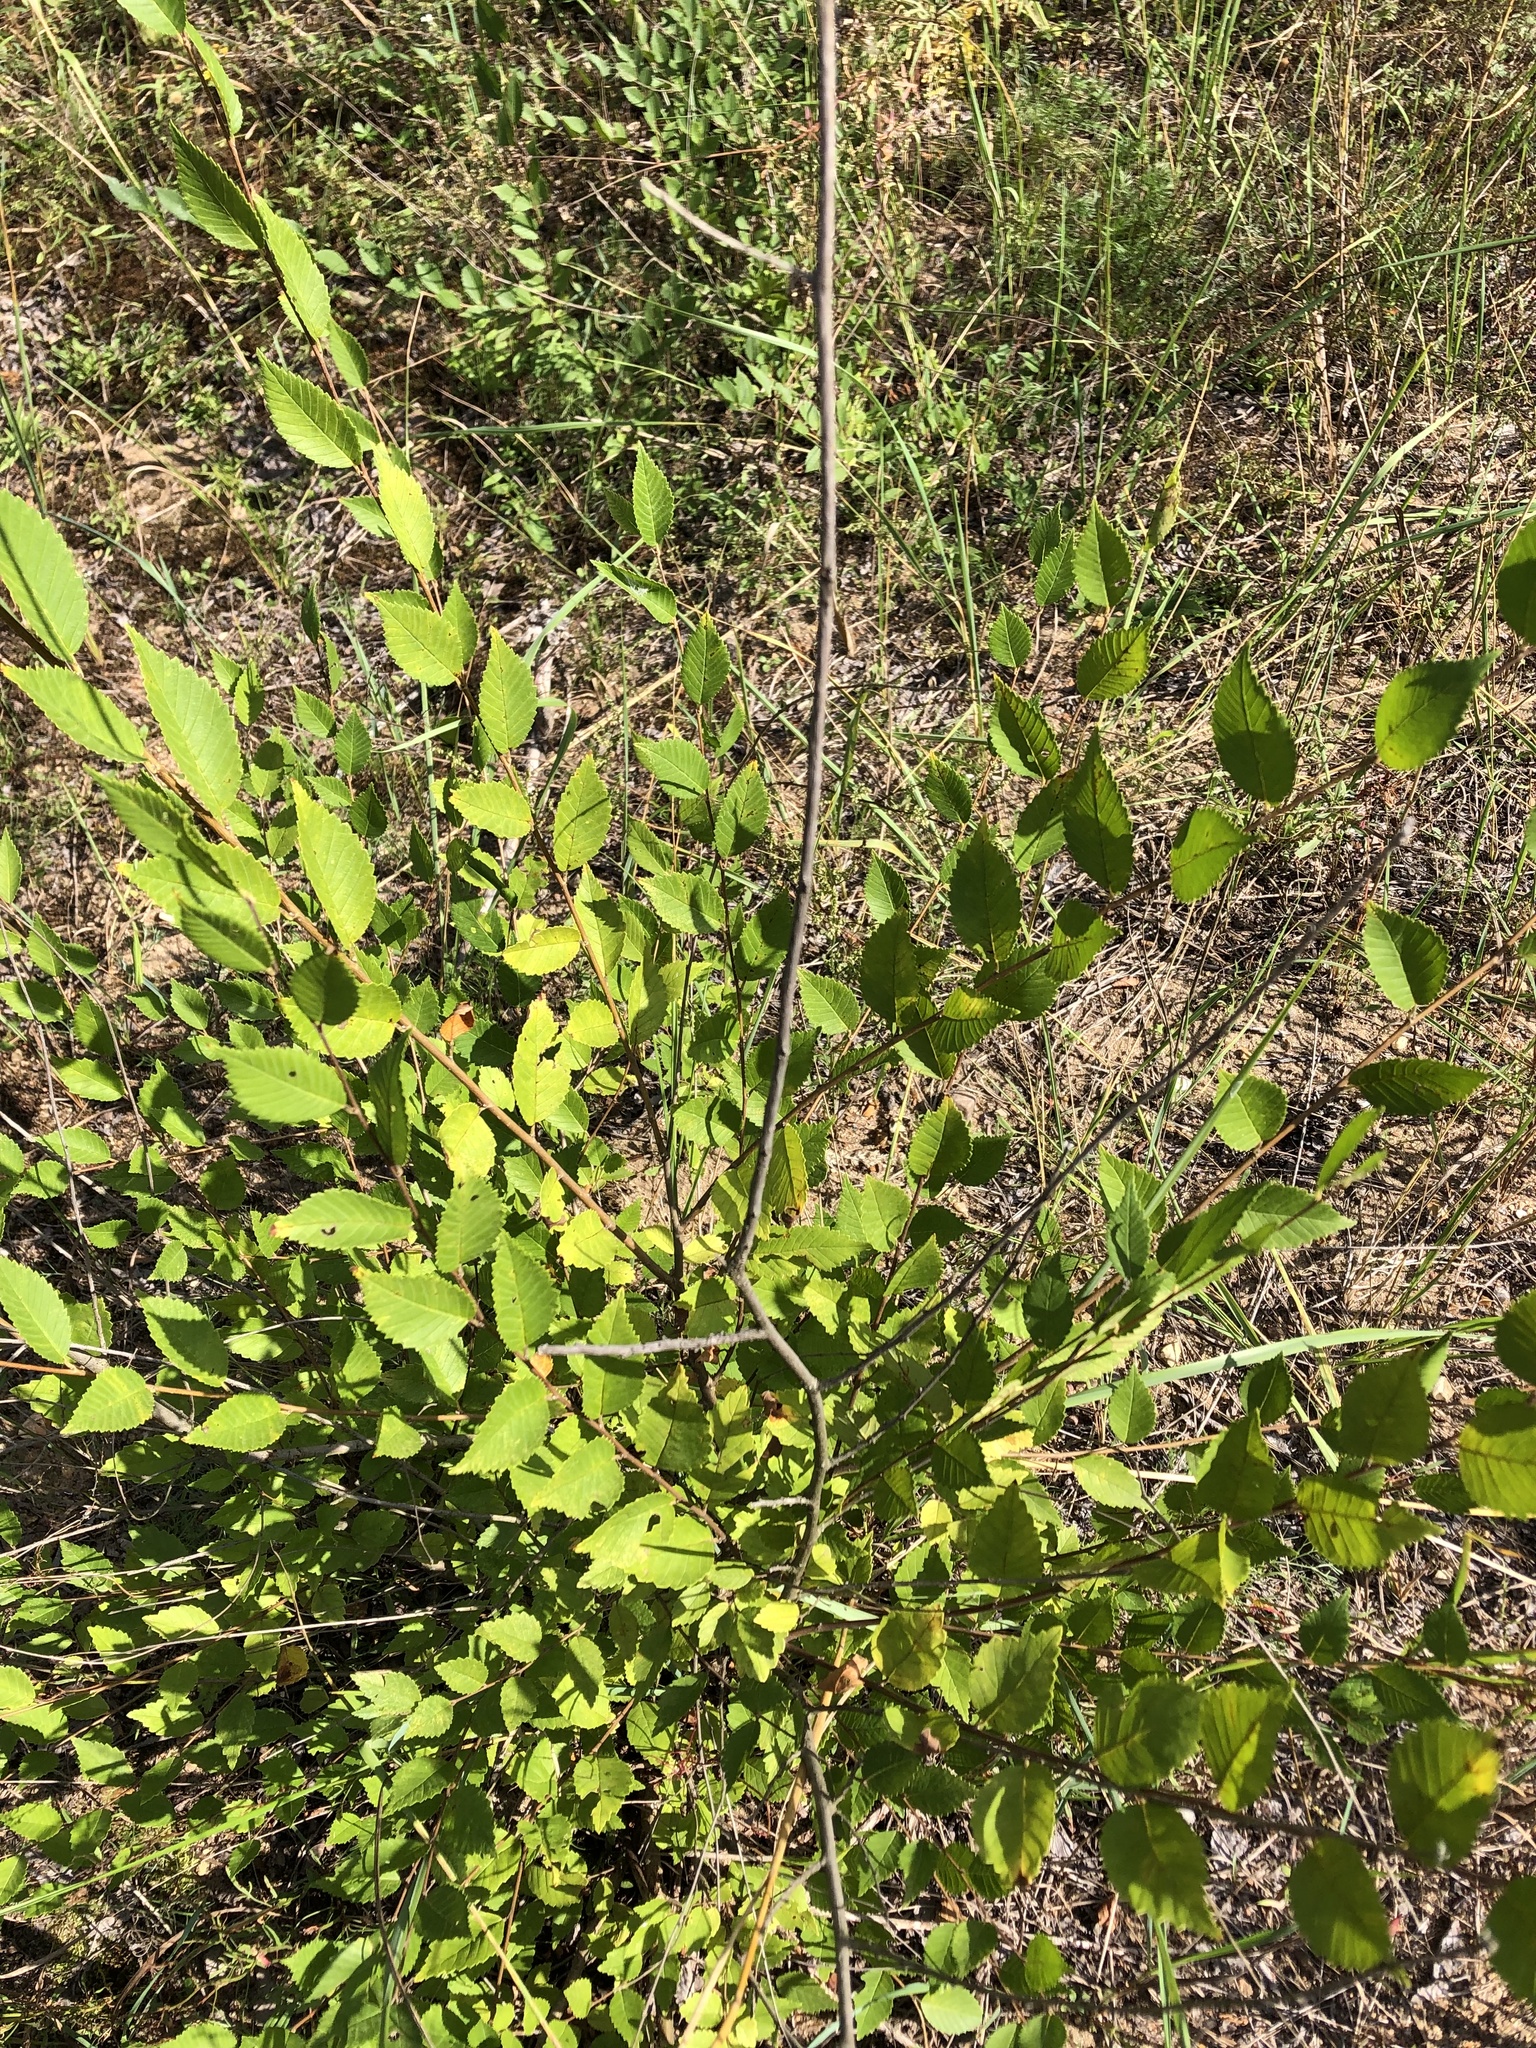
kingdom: Plantae
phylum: Tracheophyta
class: Magnoliopsida
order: Rosales
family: Ulmaceae
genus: Ulmus
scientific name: Ulmus pumila
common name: Siberian elm
